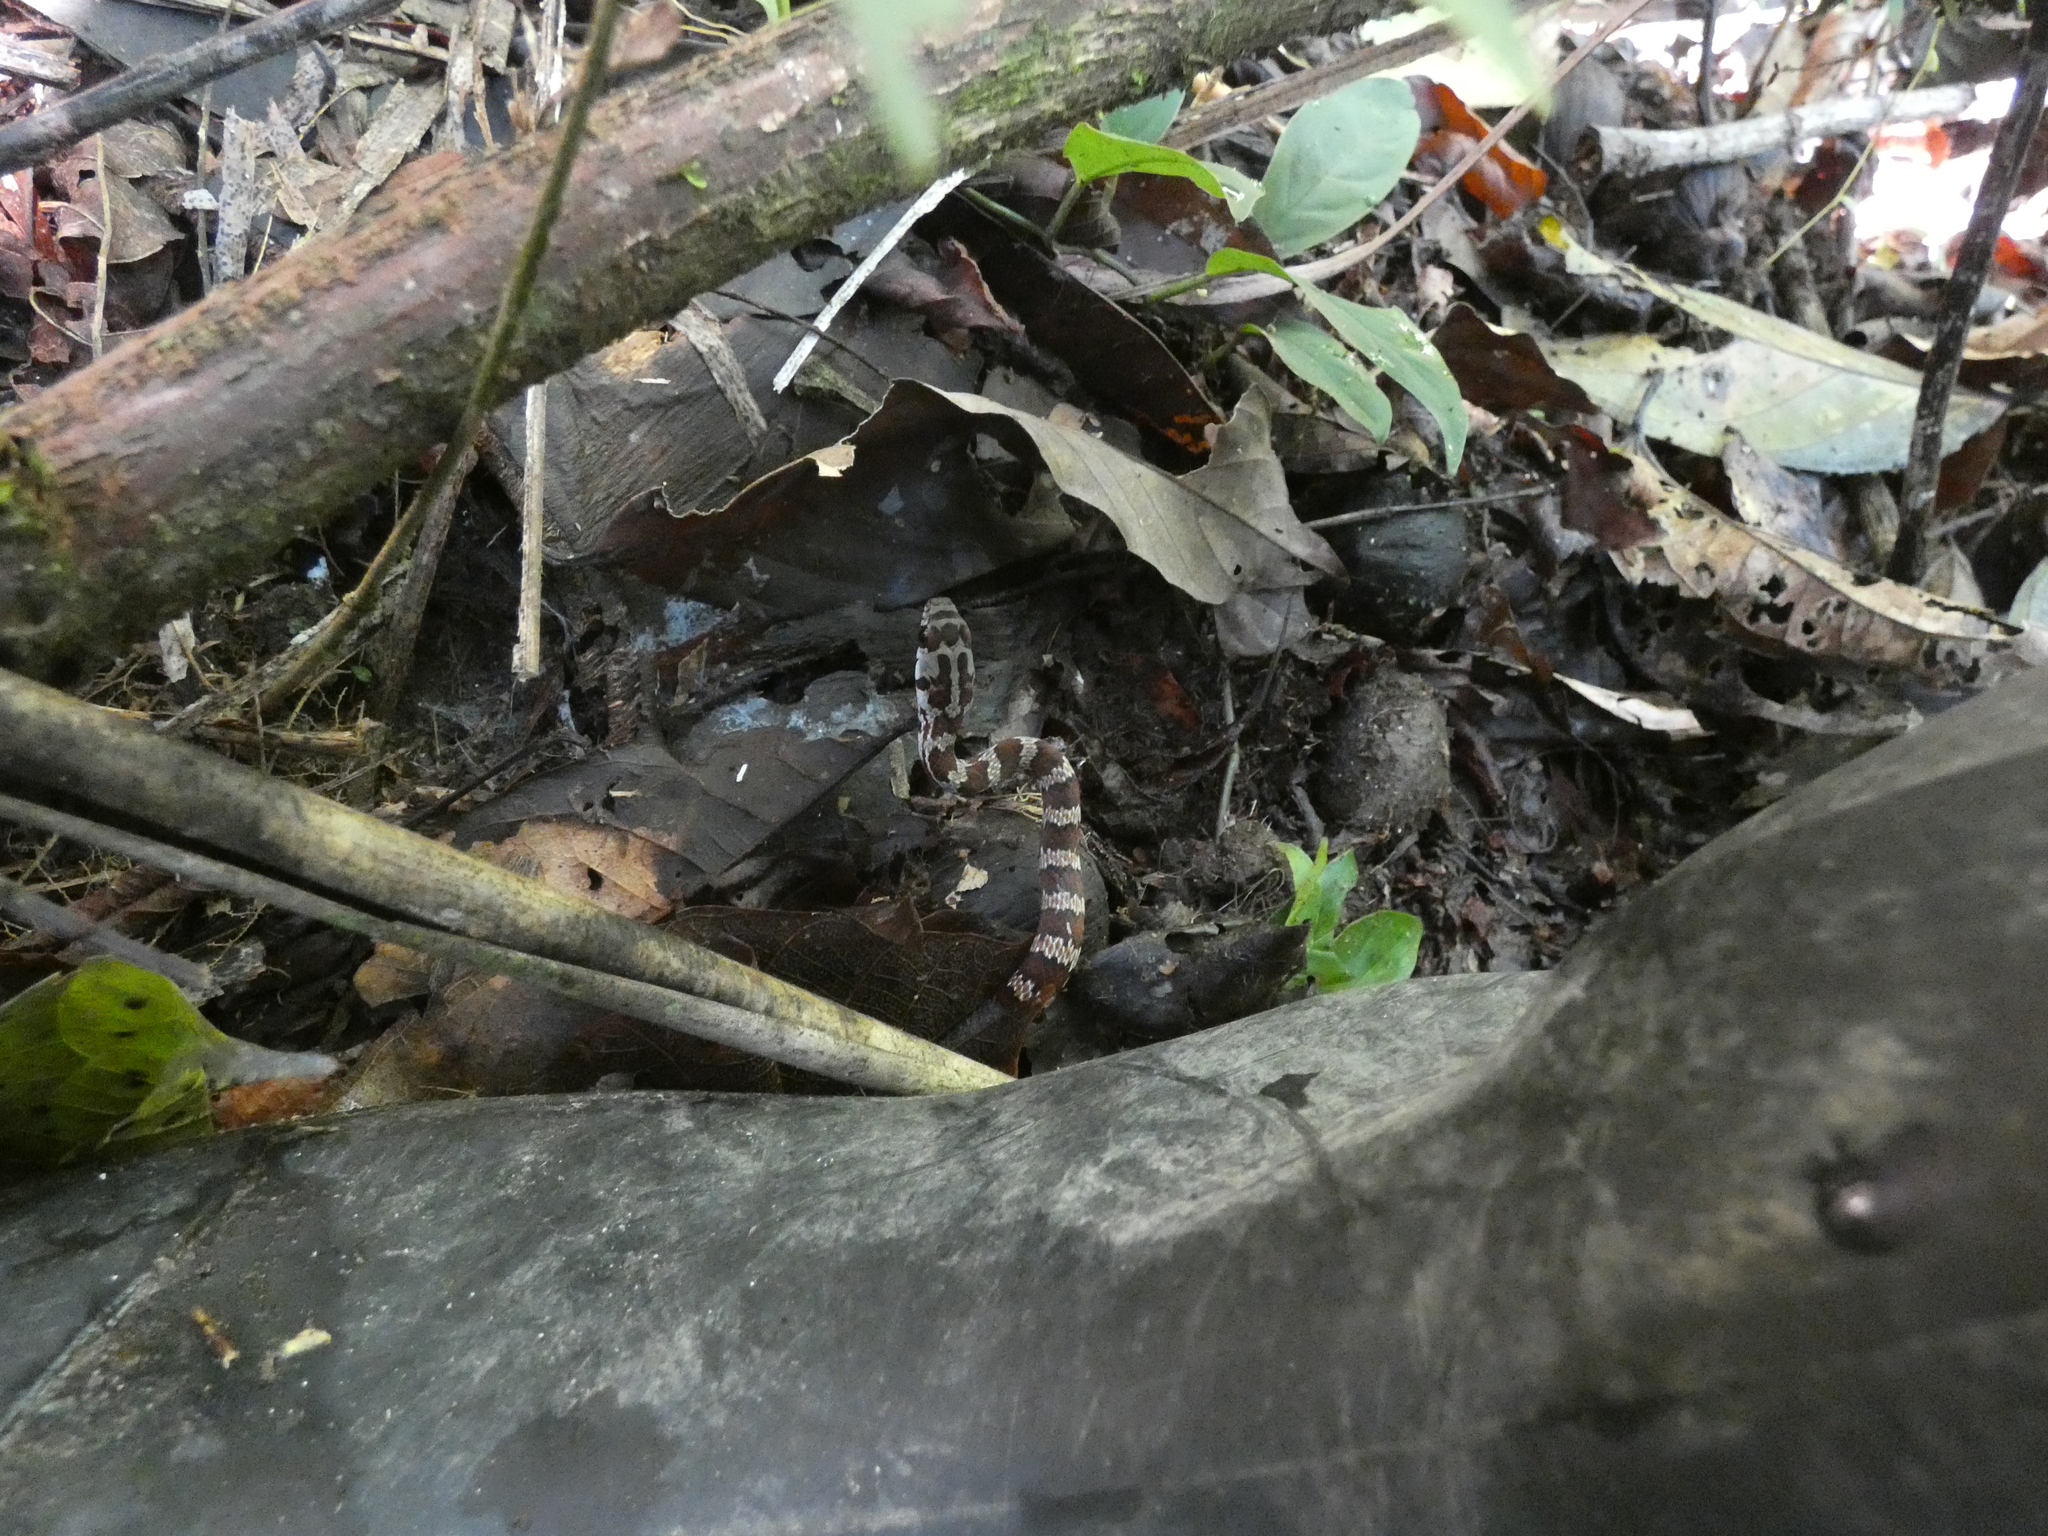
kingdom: Animalia
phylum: Chordata
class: Squamata
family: Colubridae
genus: Drymoluber
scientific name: Drymoluber dichrous
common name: Northern woodland racer
